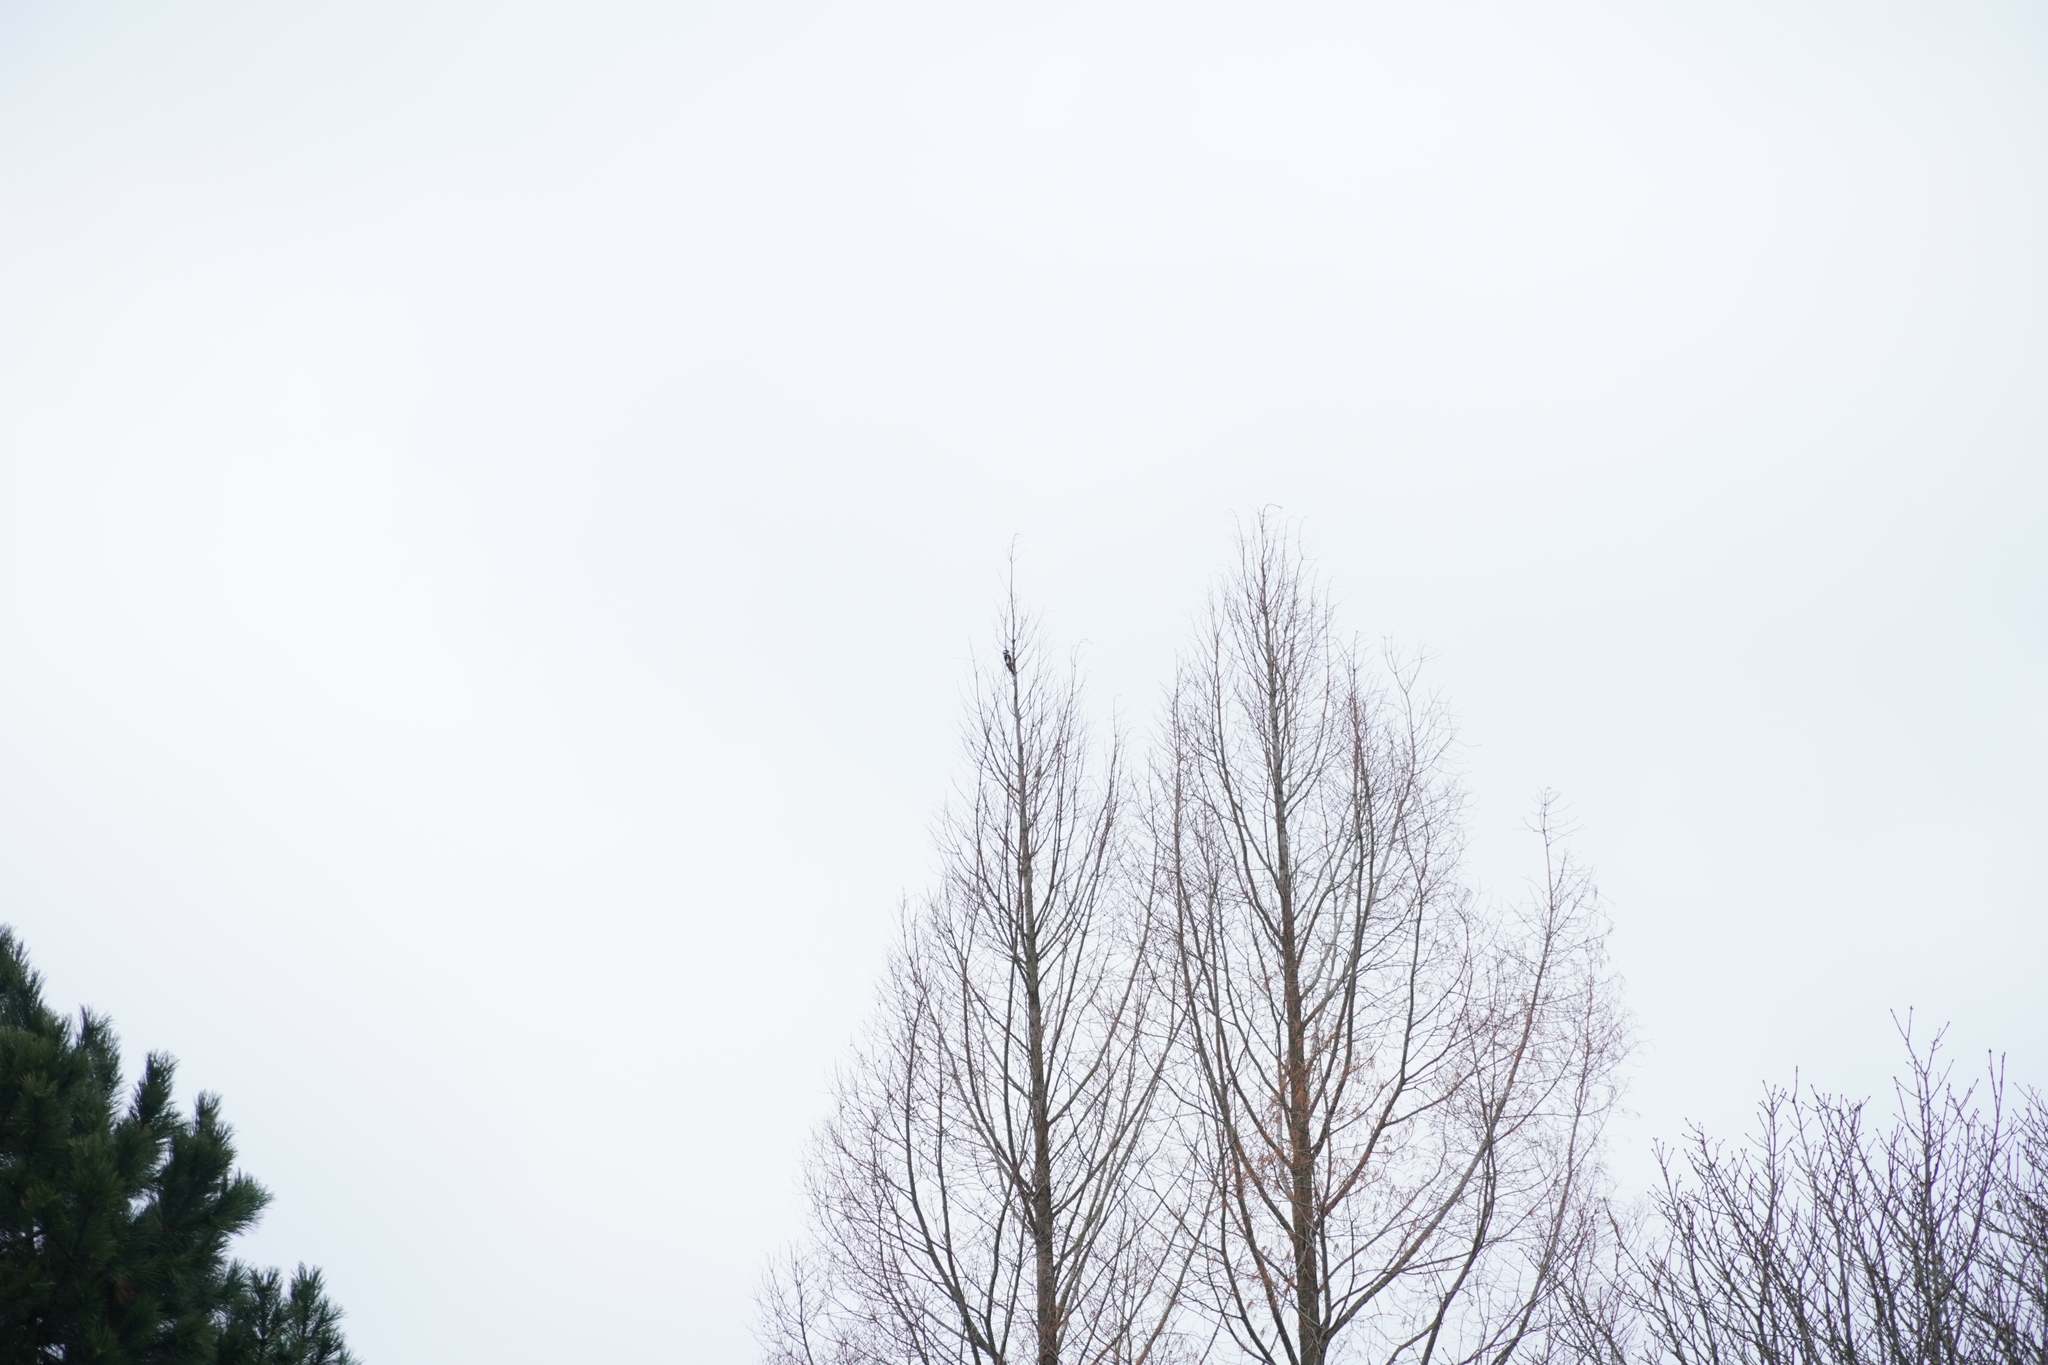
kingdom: Animalia
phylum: Chordata
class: Aves
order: Piciformes
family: Picidae
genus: Dendrocopos
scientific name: Dendrocopos major
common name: Great spotted woodpecker
